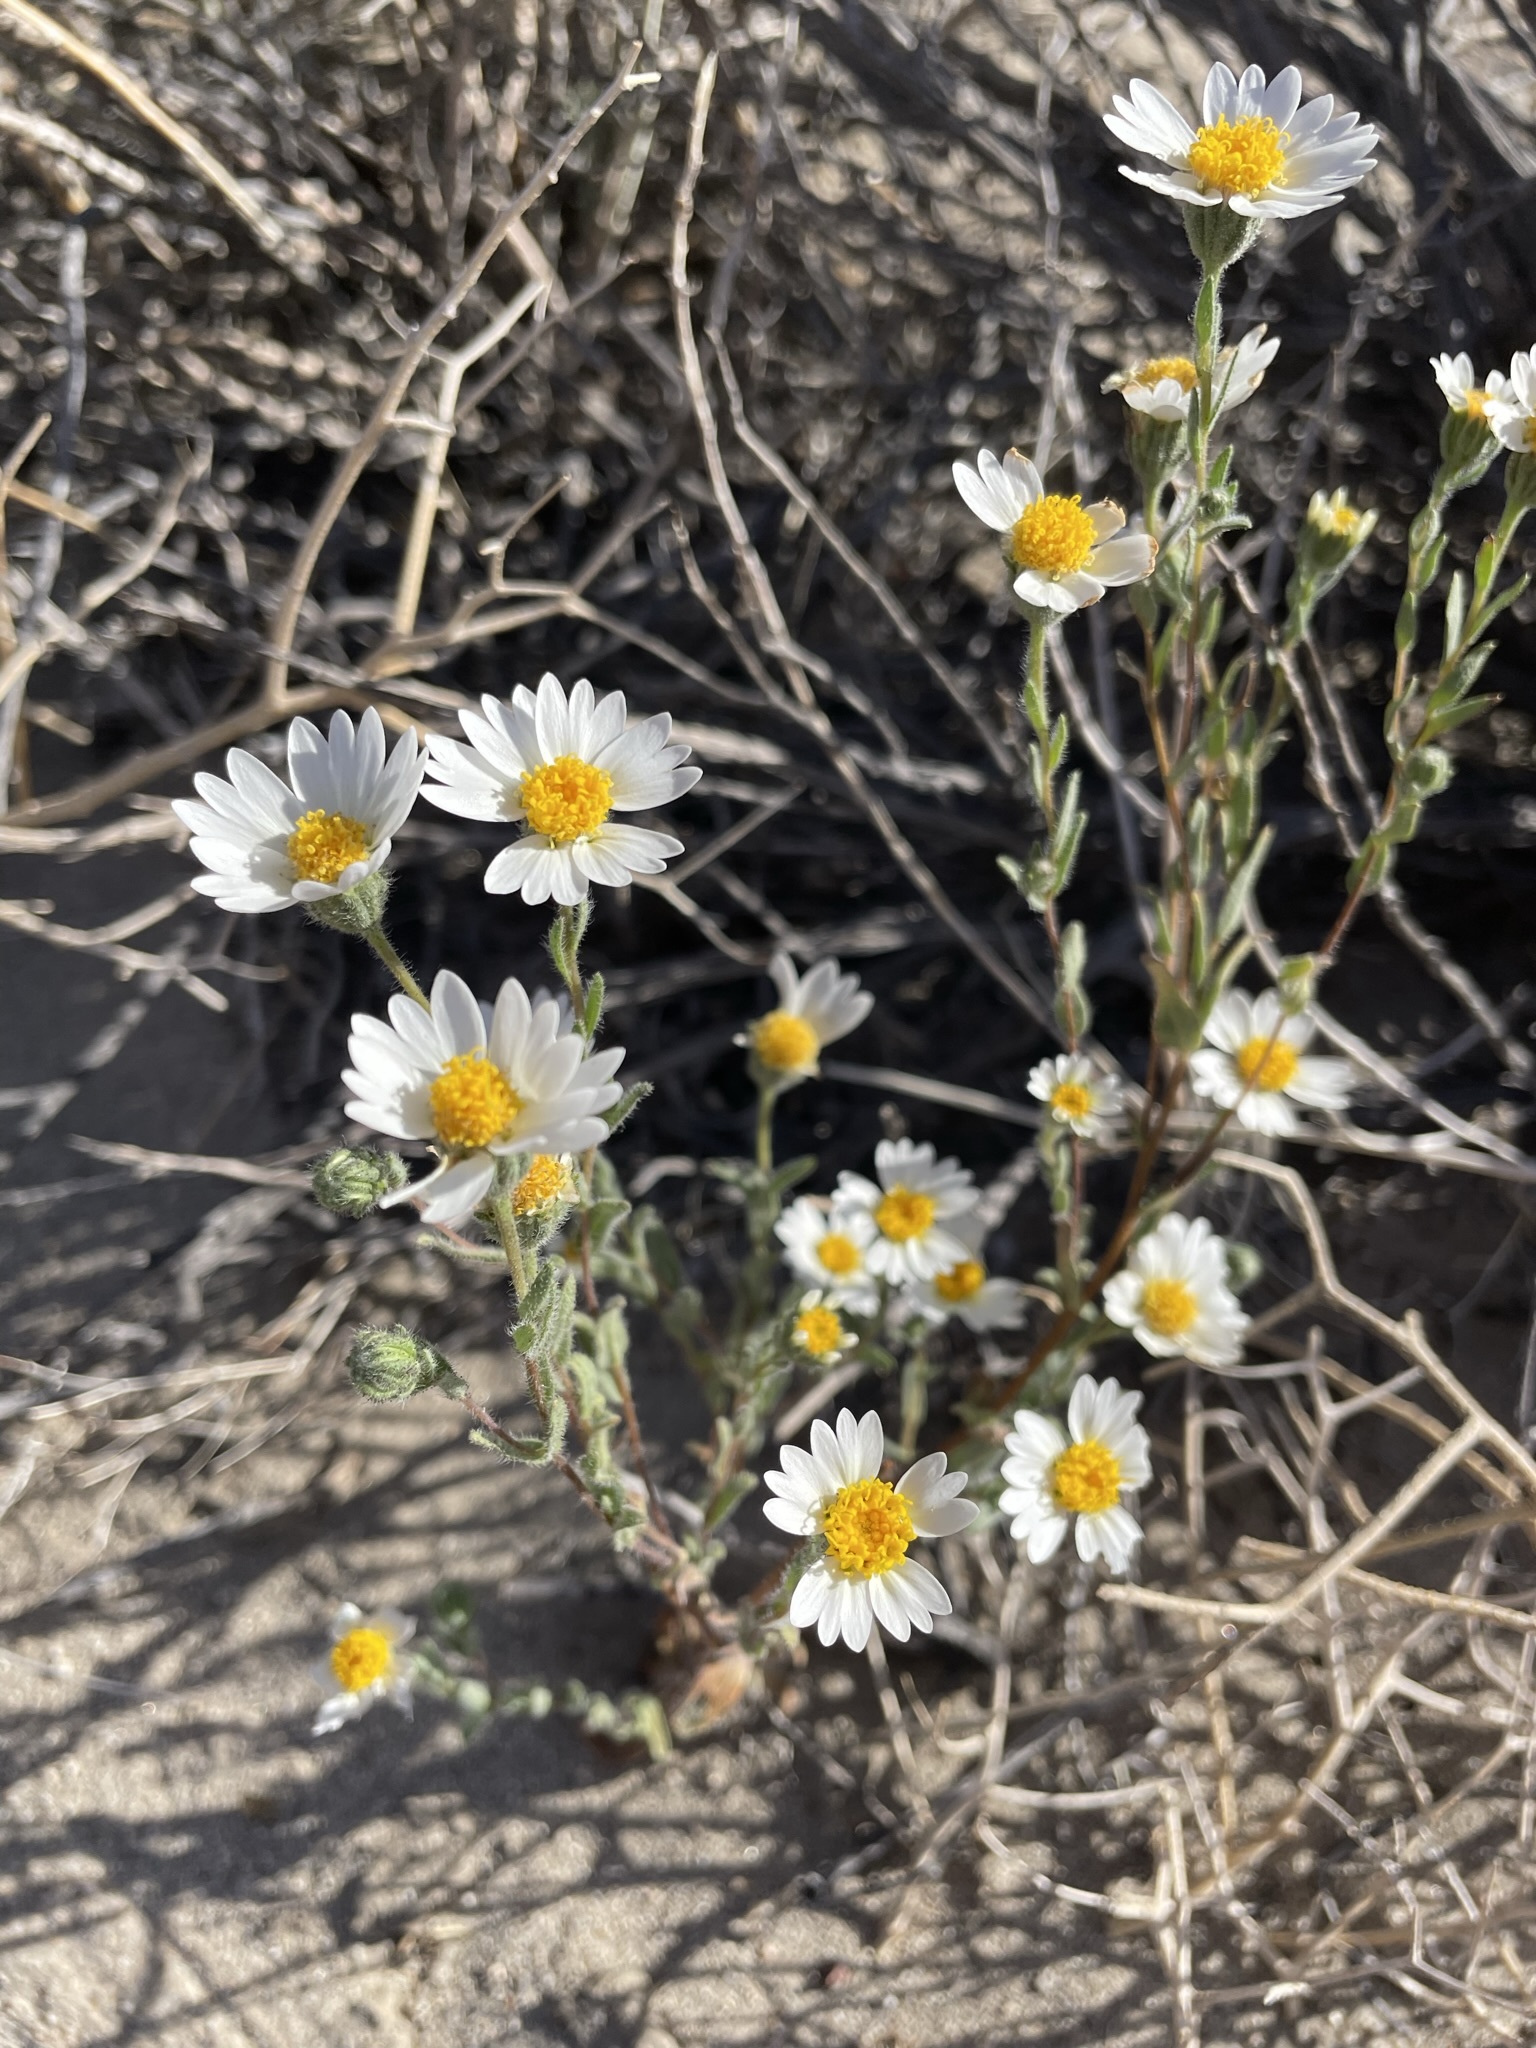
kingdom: Plantae
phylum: Tracheophyta
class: Magnoliopsida
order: Asterales
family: Asteraceae
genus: Layia
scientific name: Layia glandulosa
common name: White layia
